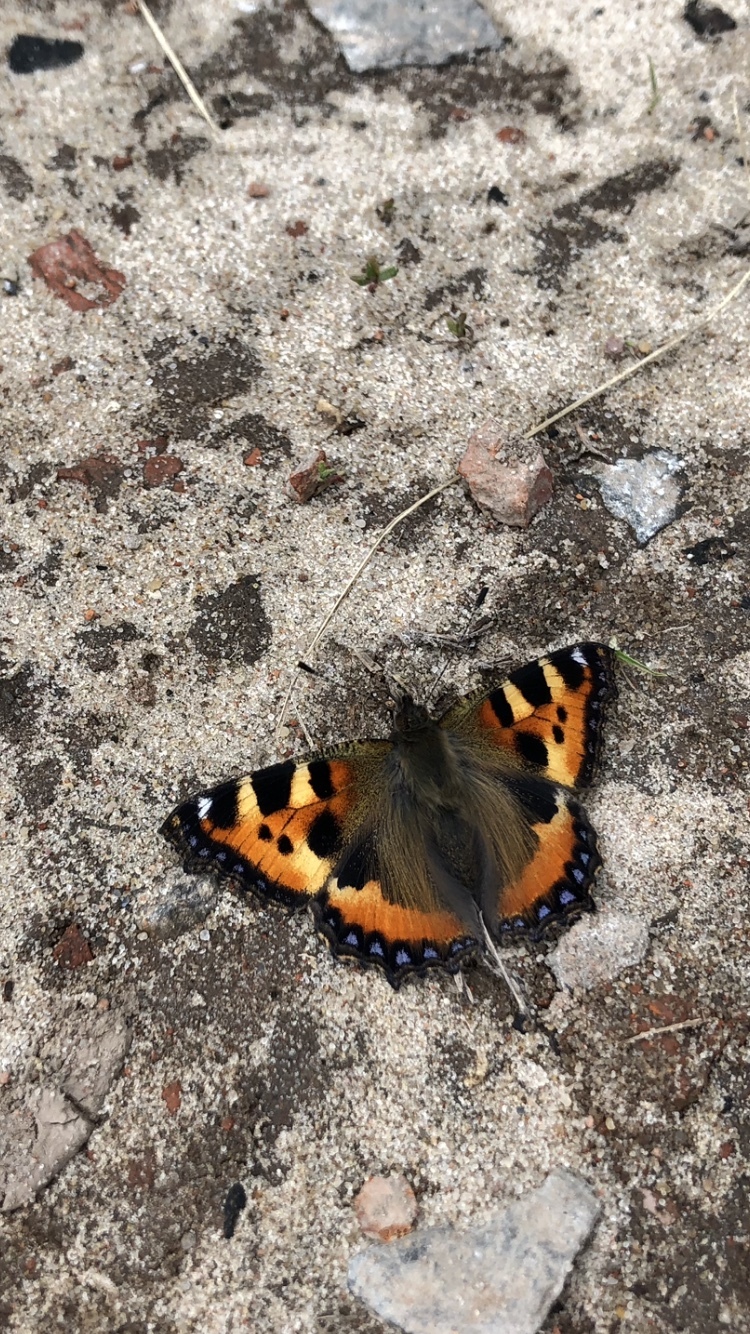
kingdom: Animalia
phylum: Arthropoda
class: Insecta
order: Lepidoptera
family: Nymphalidae
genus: Aglais
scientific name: Aglais urticae
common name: Small tortoiseshell
